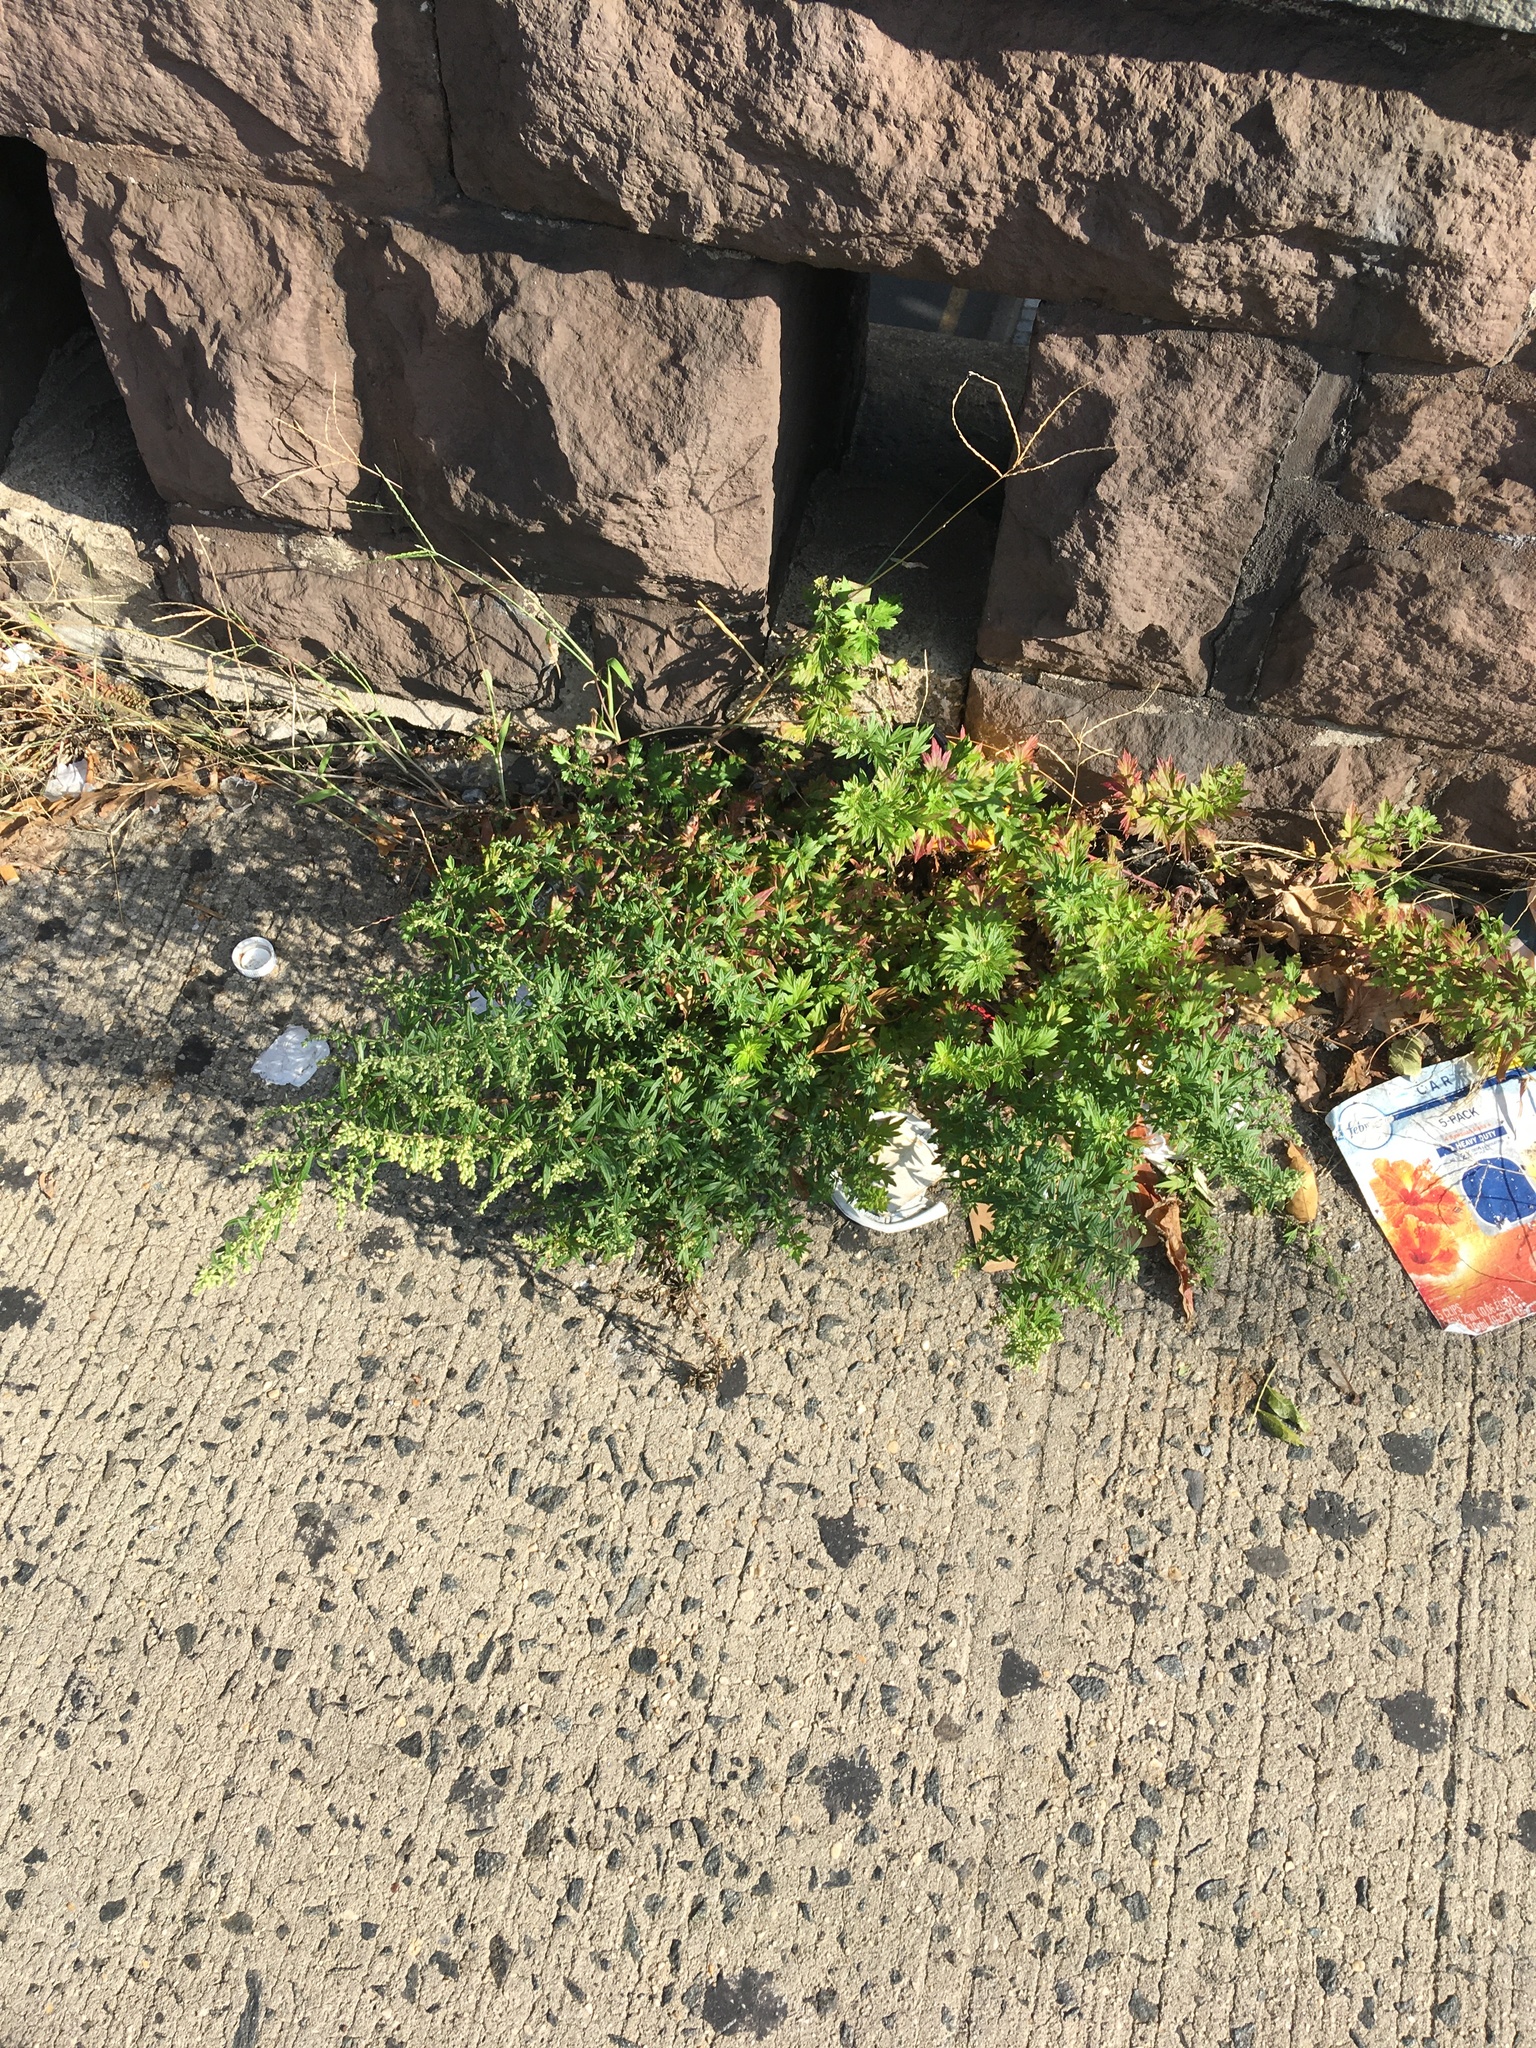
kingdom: Plantae
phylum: Tracheophyta
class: Magnoliopsida
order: Asterales
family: Asteraceae
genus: Artemisia
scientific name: Artemisia vulgaris
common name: Mugwort
